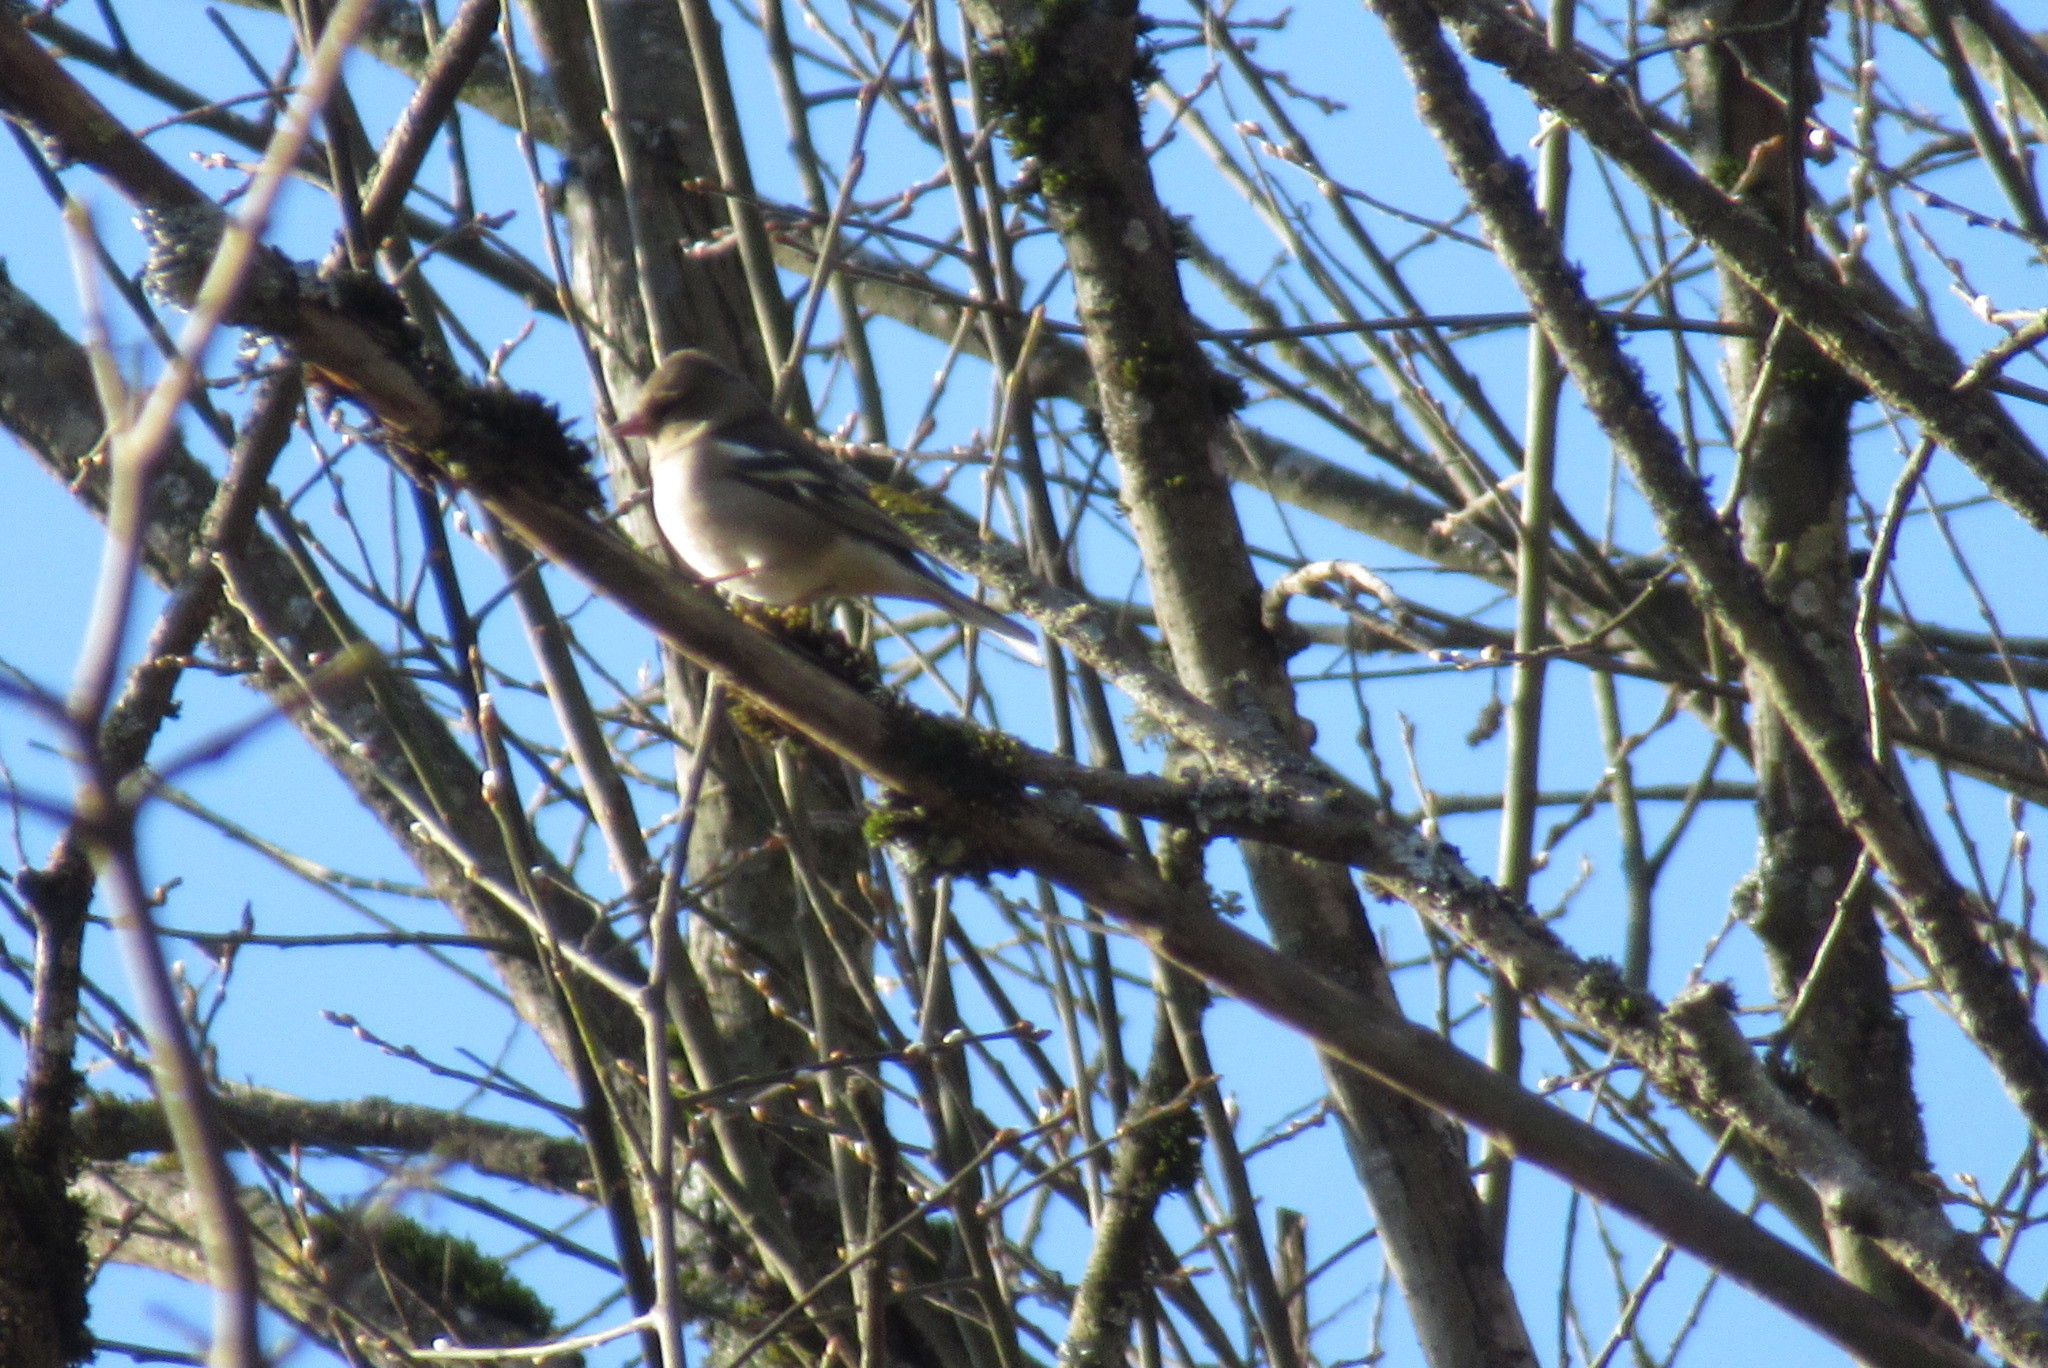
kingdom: Animalia
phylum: Chordata
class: Aves
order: Passeriformes
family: Fringillidae
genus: Fringilla
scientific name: Fringilla coelebs
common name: Common chaffinch
